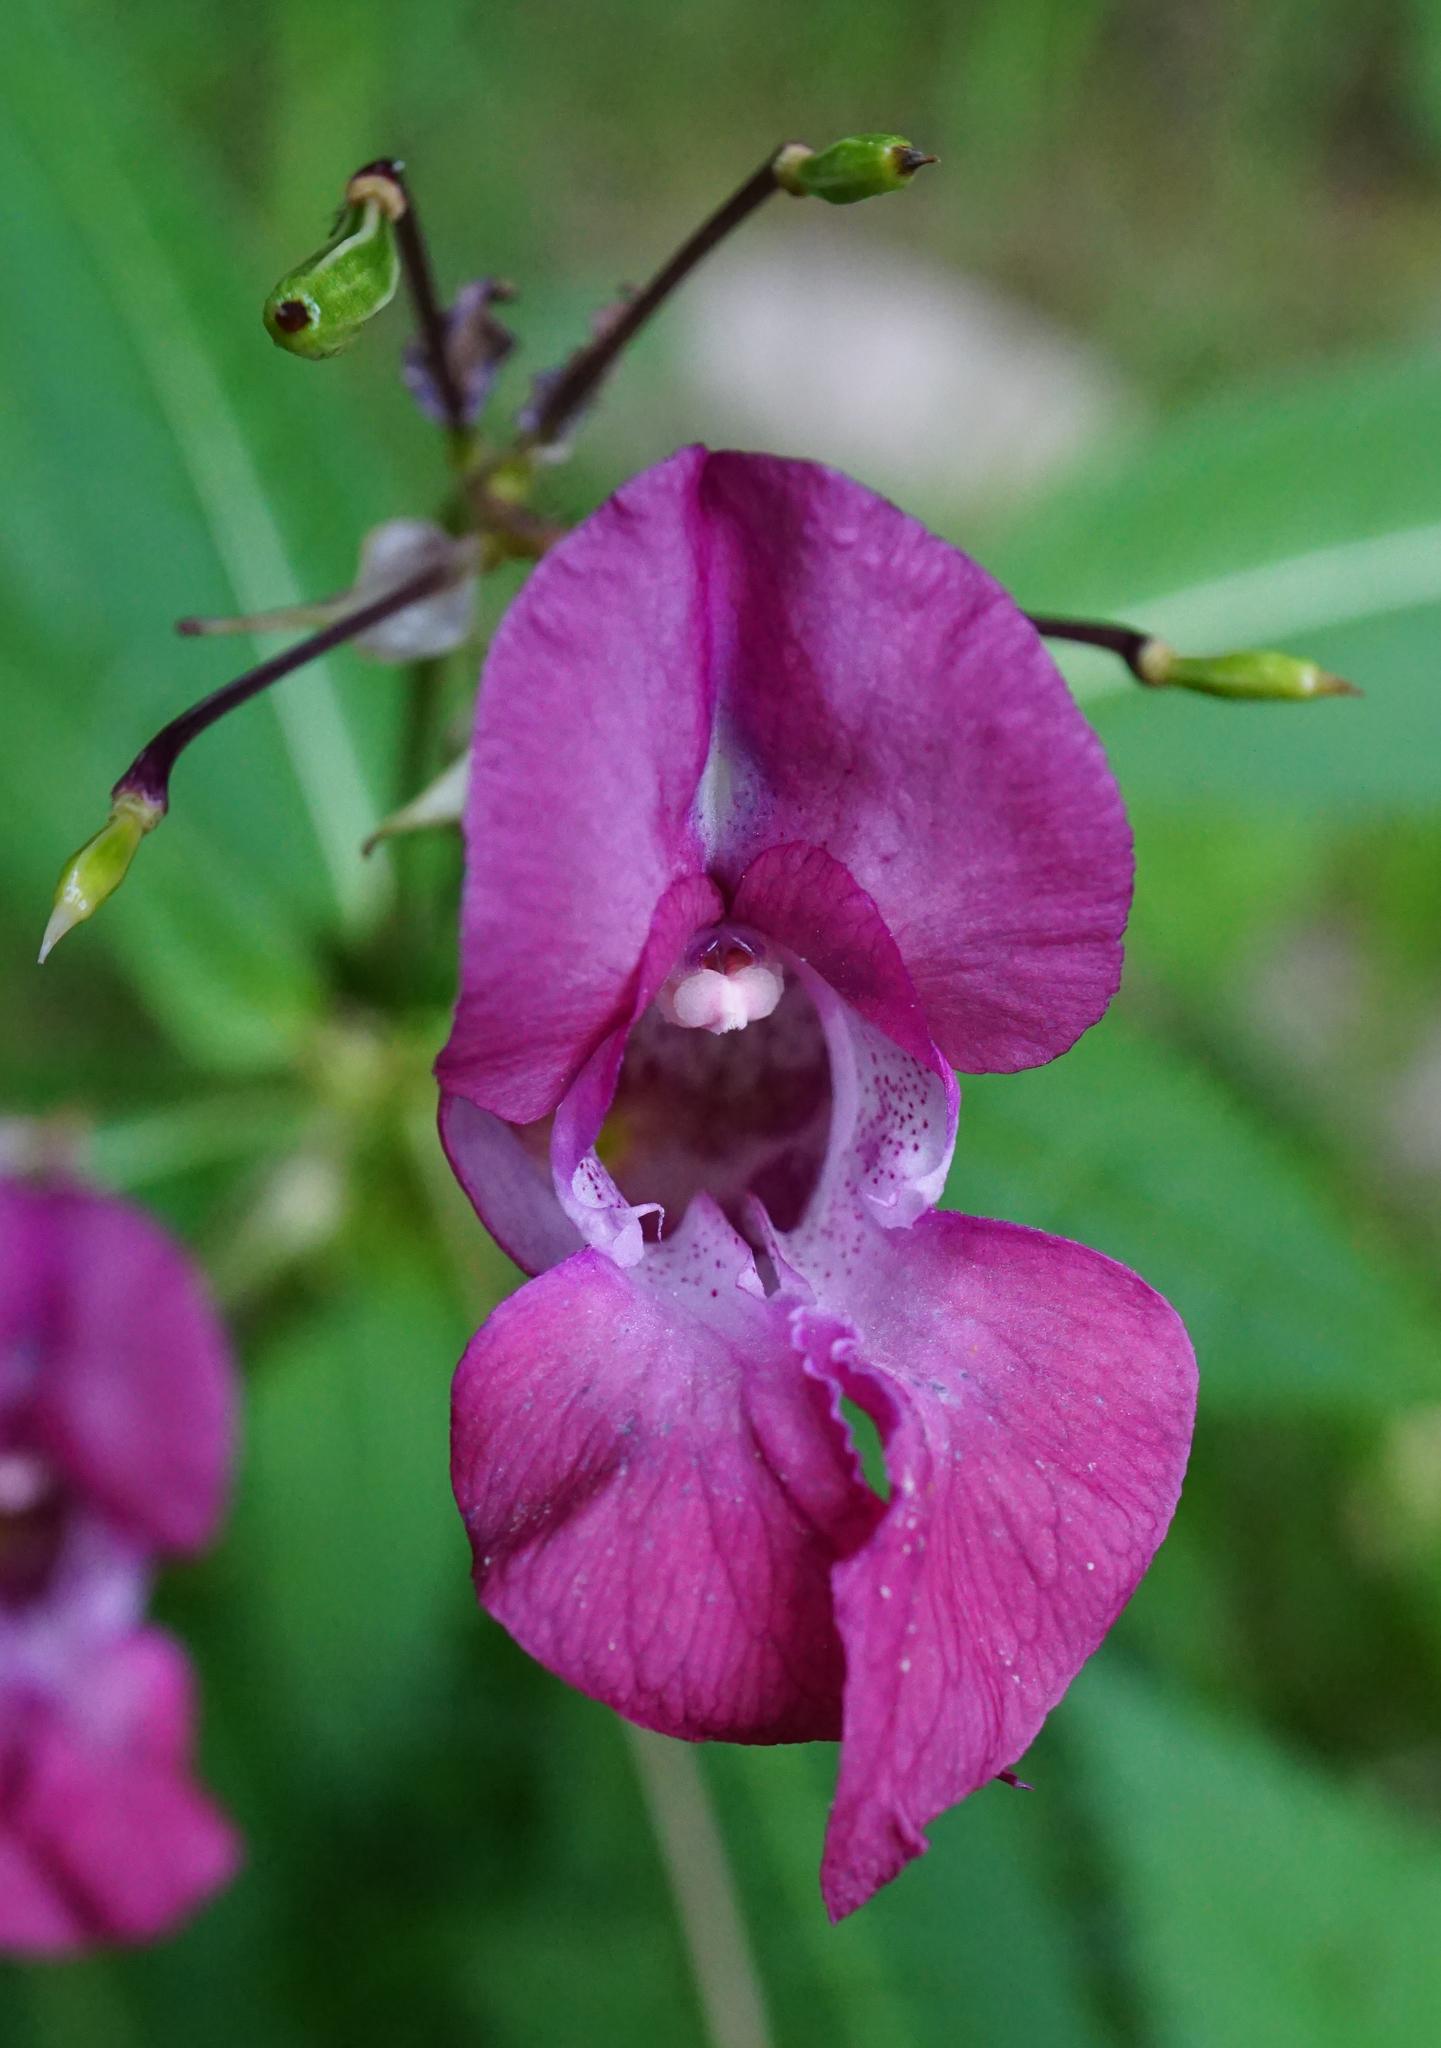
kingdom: Plantae
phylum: Tracheophyta
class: Magnoliopsida
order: Ericales
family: Balsaminaceae
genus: Impatiens
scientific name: Impatiens glandulifera
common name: Himalayan balsam
